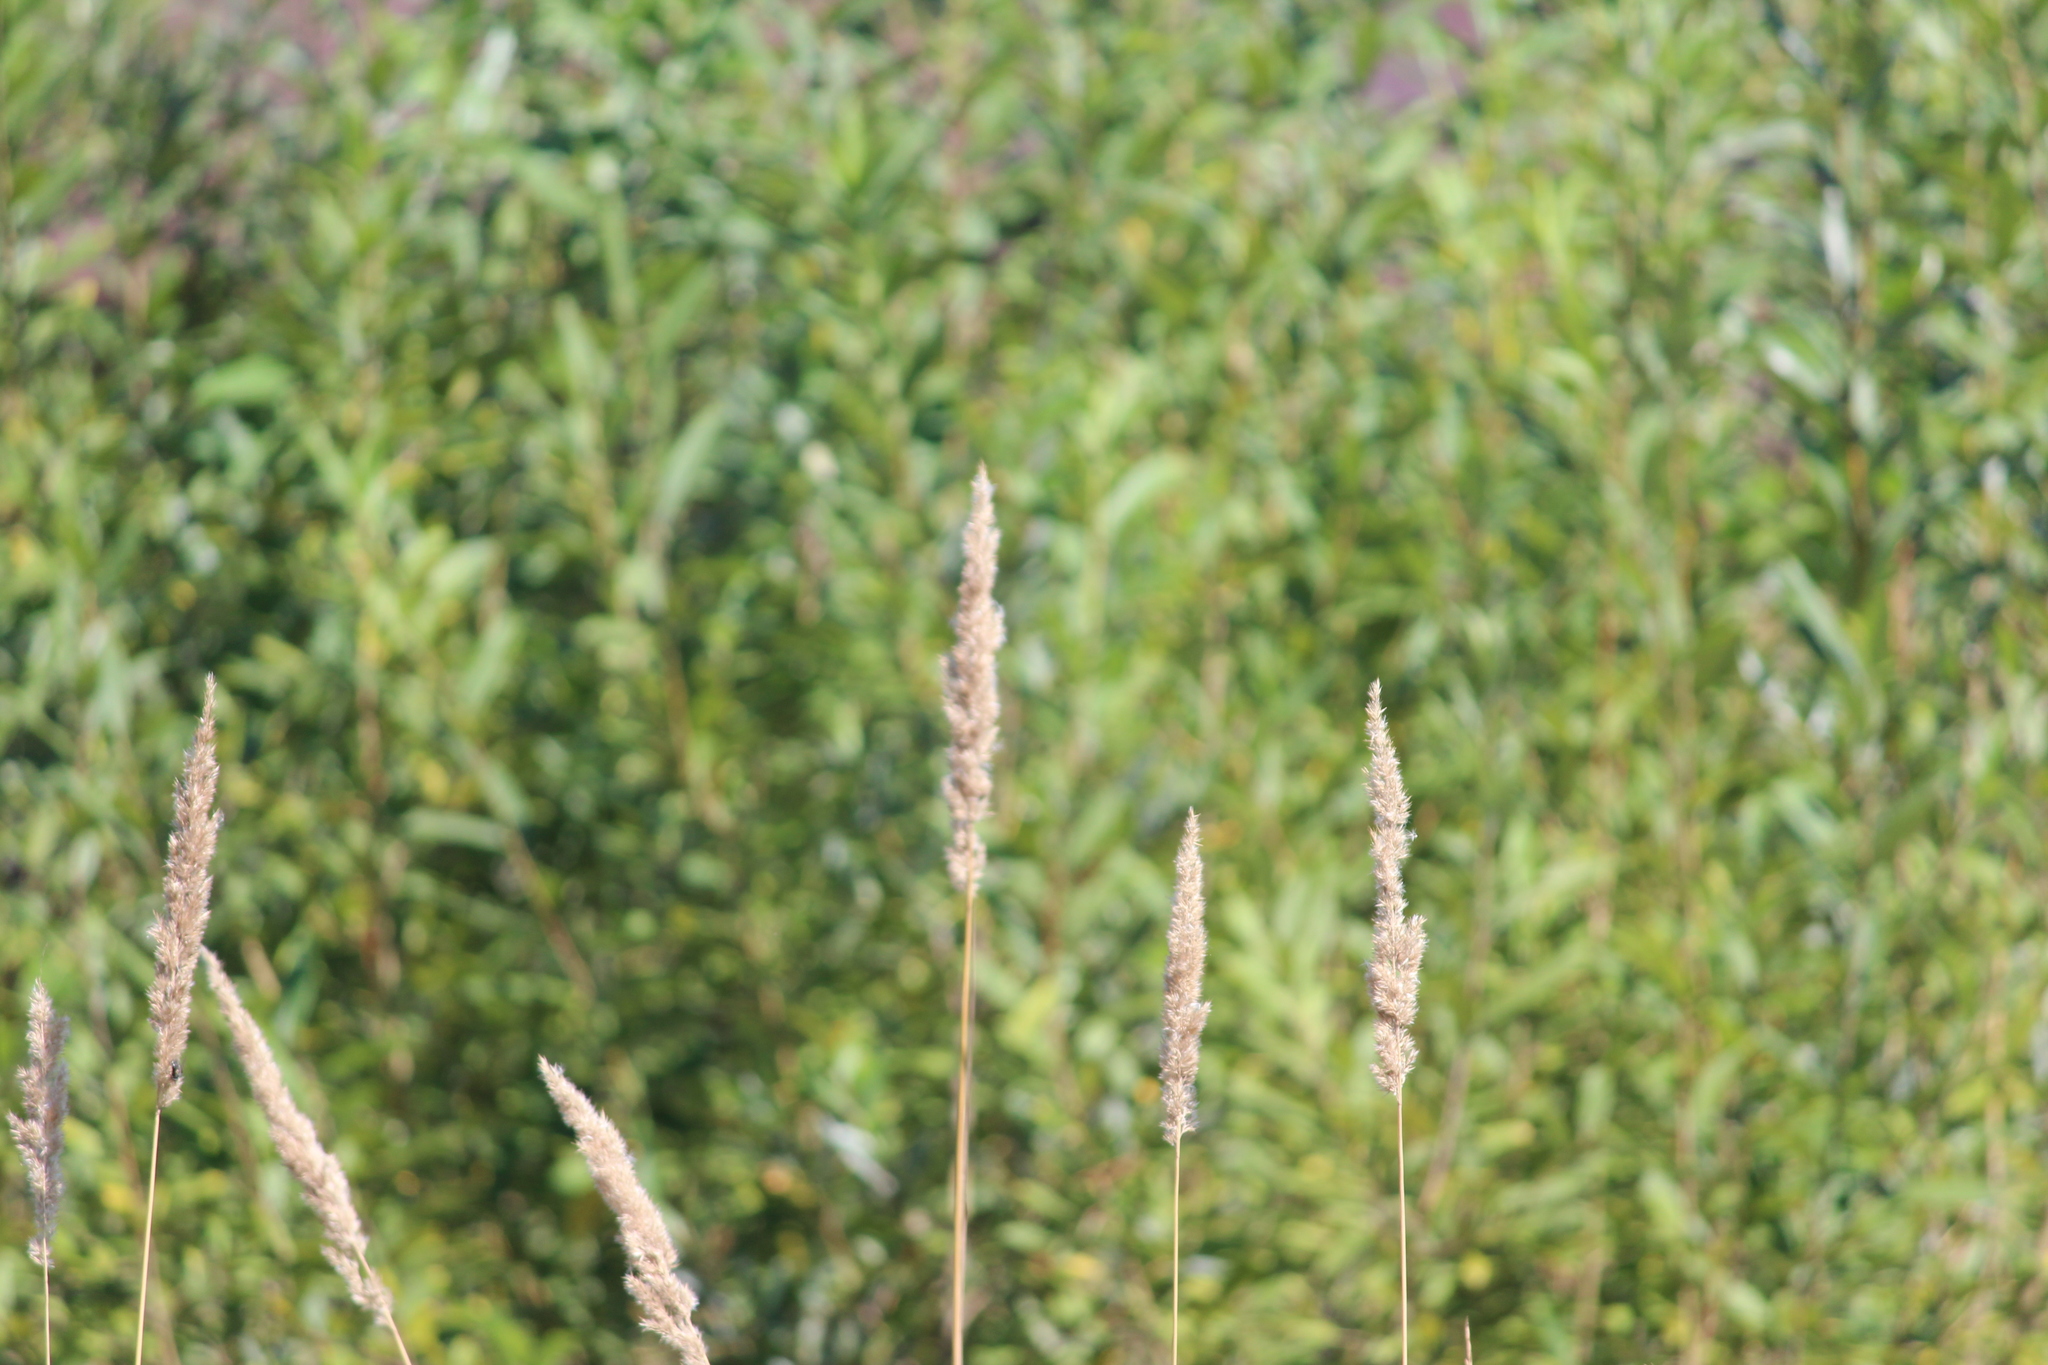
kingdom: Plantae
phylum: Tracheophyta
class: Liliopsida
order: Poales
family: Poaceae
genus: Phalaris
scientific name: Phalaris arundinacea
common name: Reed canary-grass
